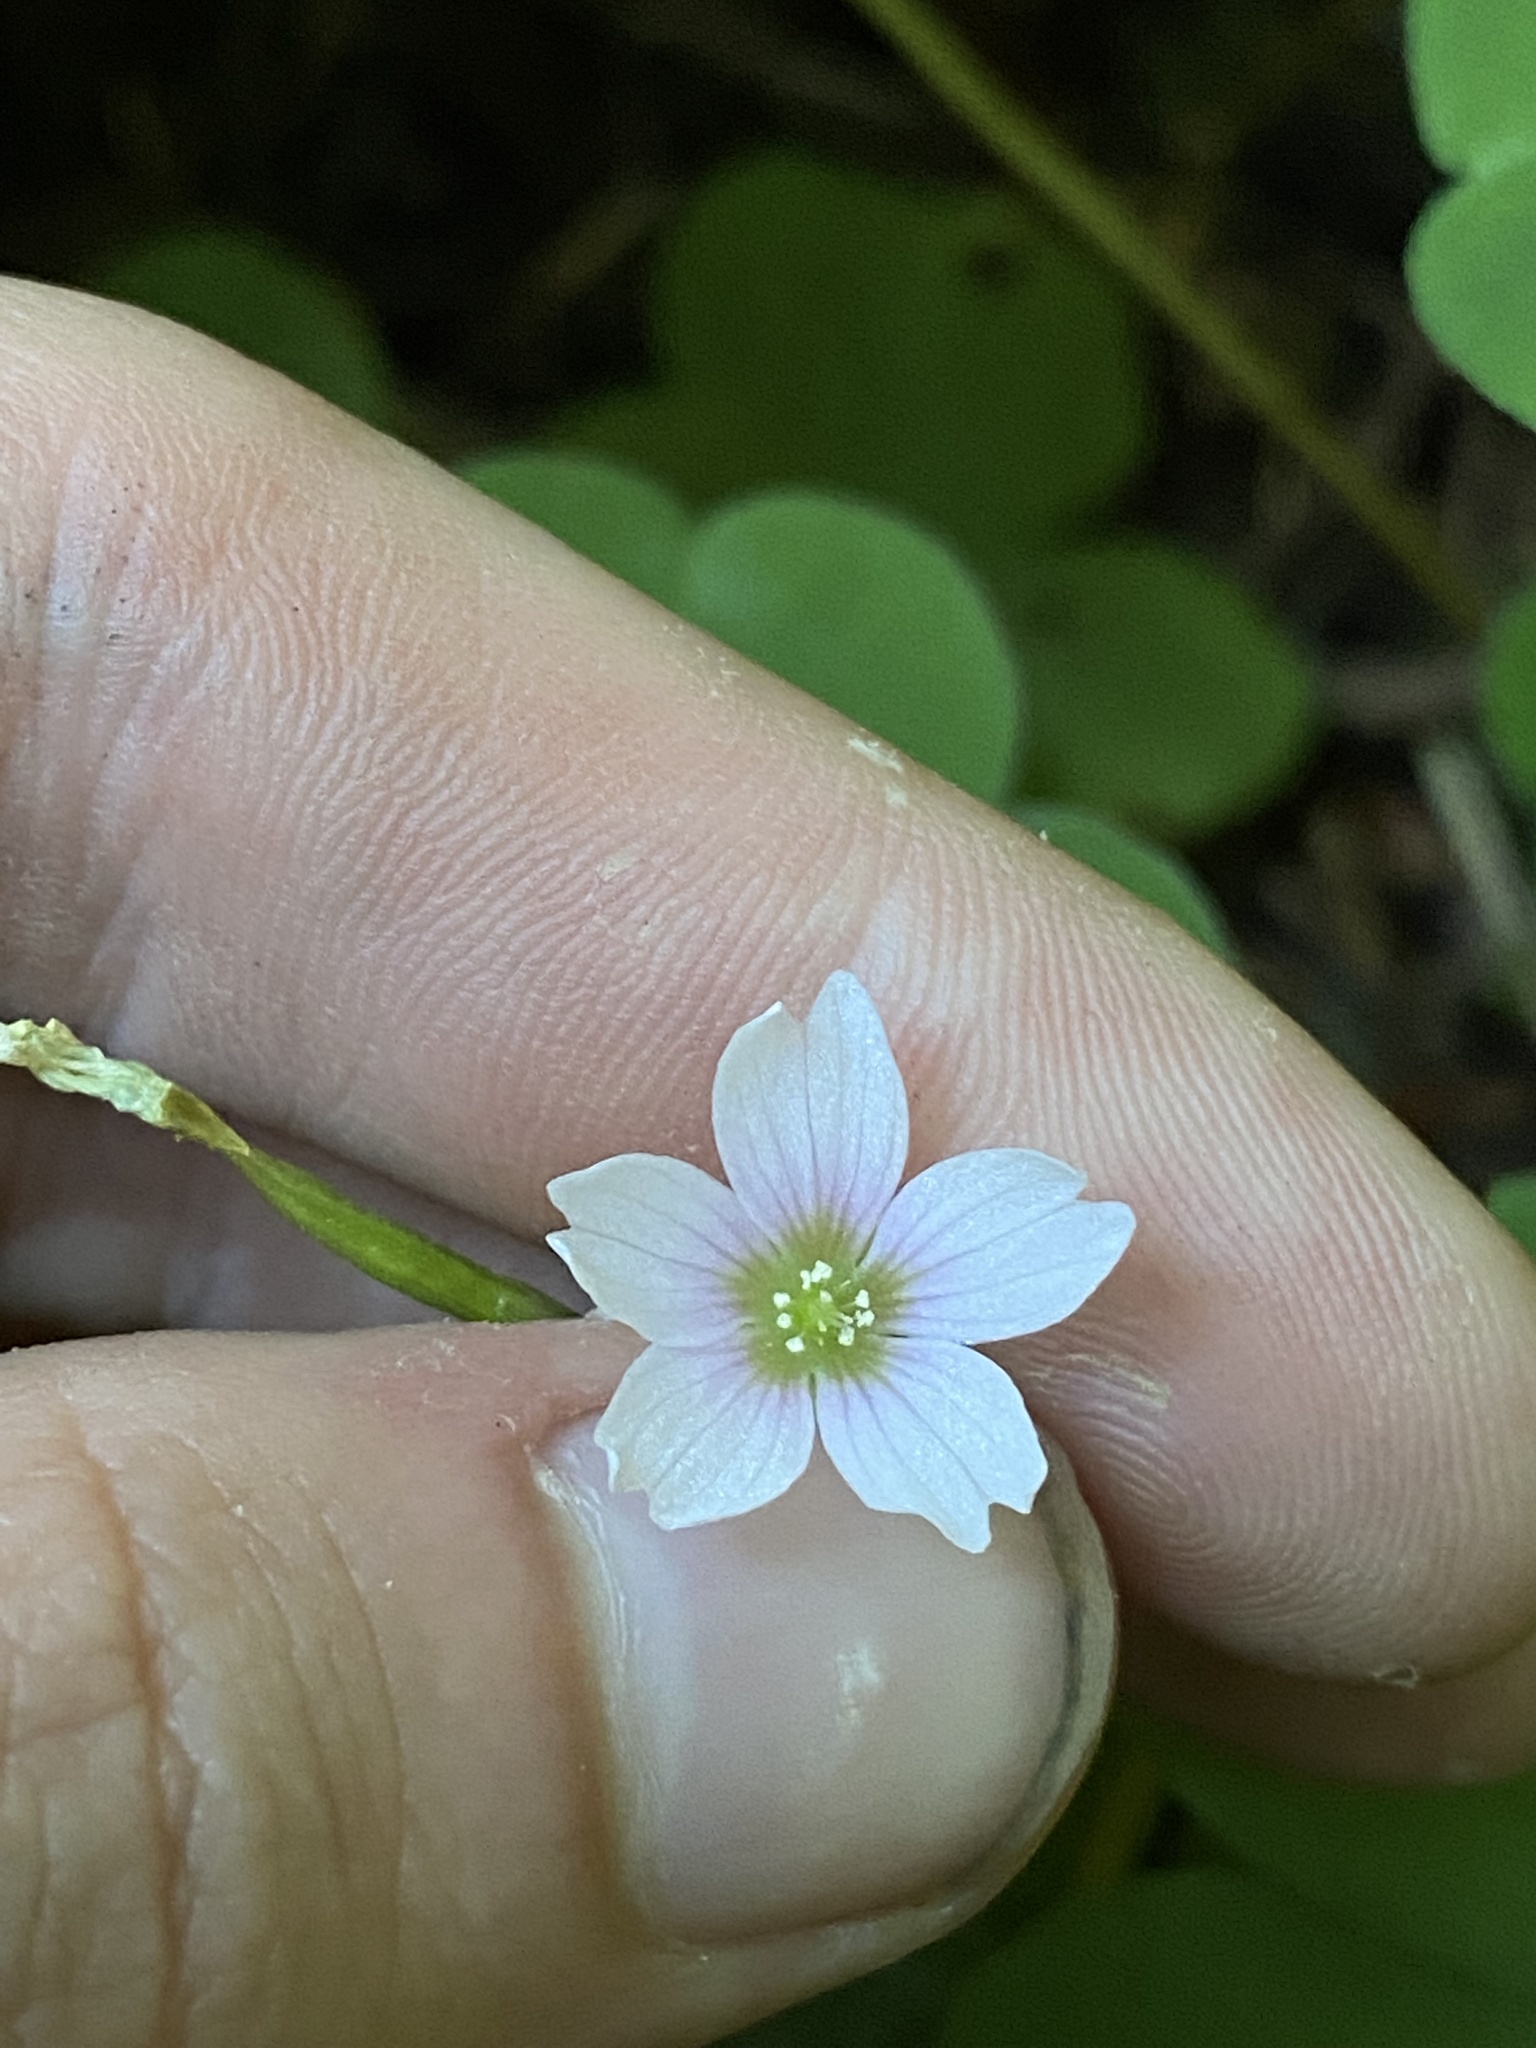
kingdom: Plantae
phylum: Tracheophyta
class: Magnoliopsida
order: Oxalidales
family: Oxalidaceae
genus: Oxalis
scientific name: Oxalis trilliifolia
